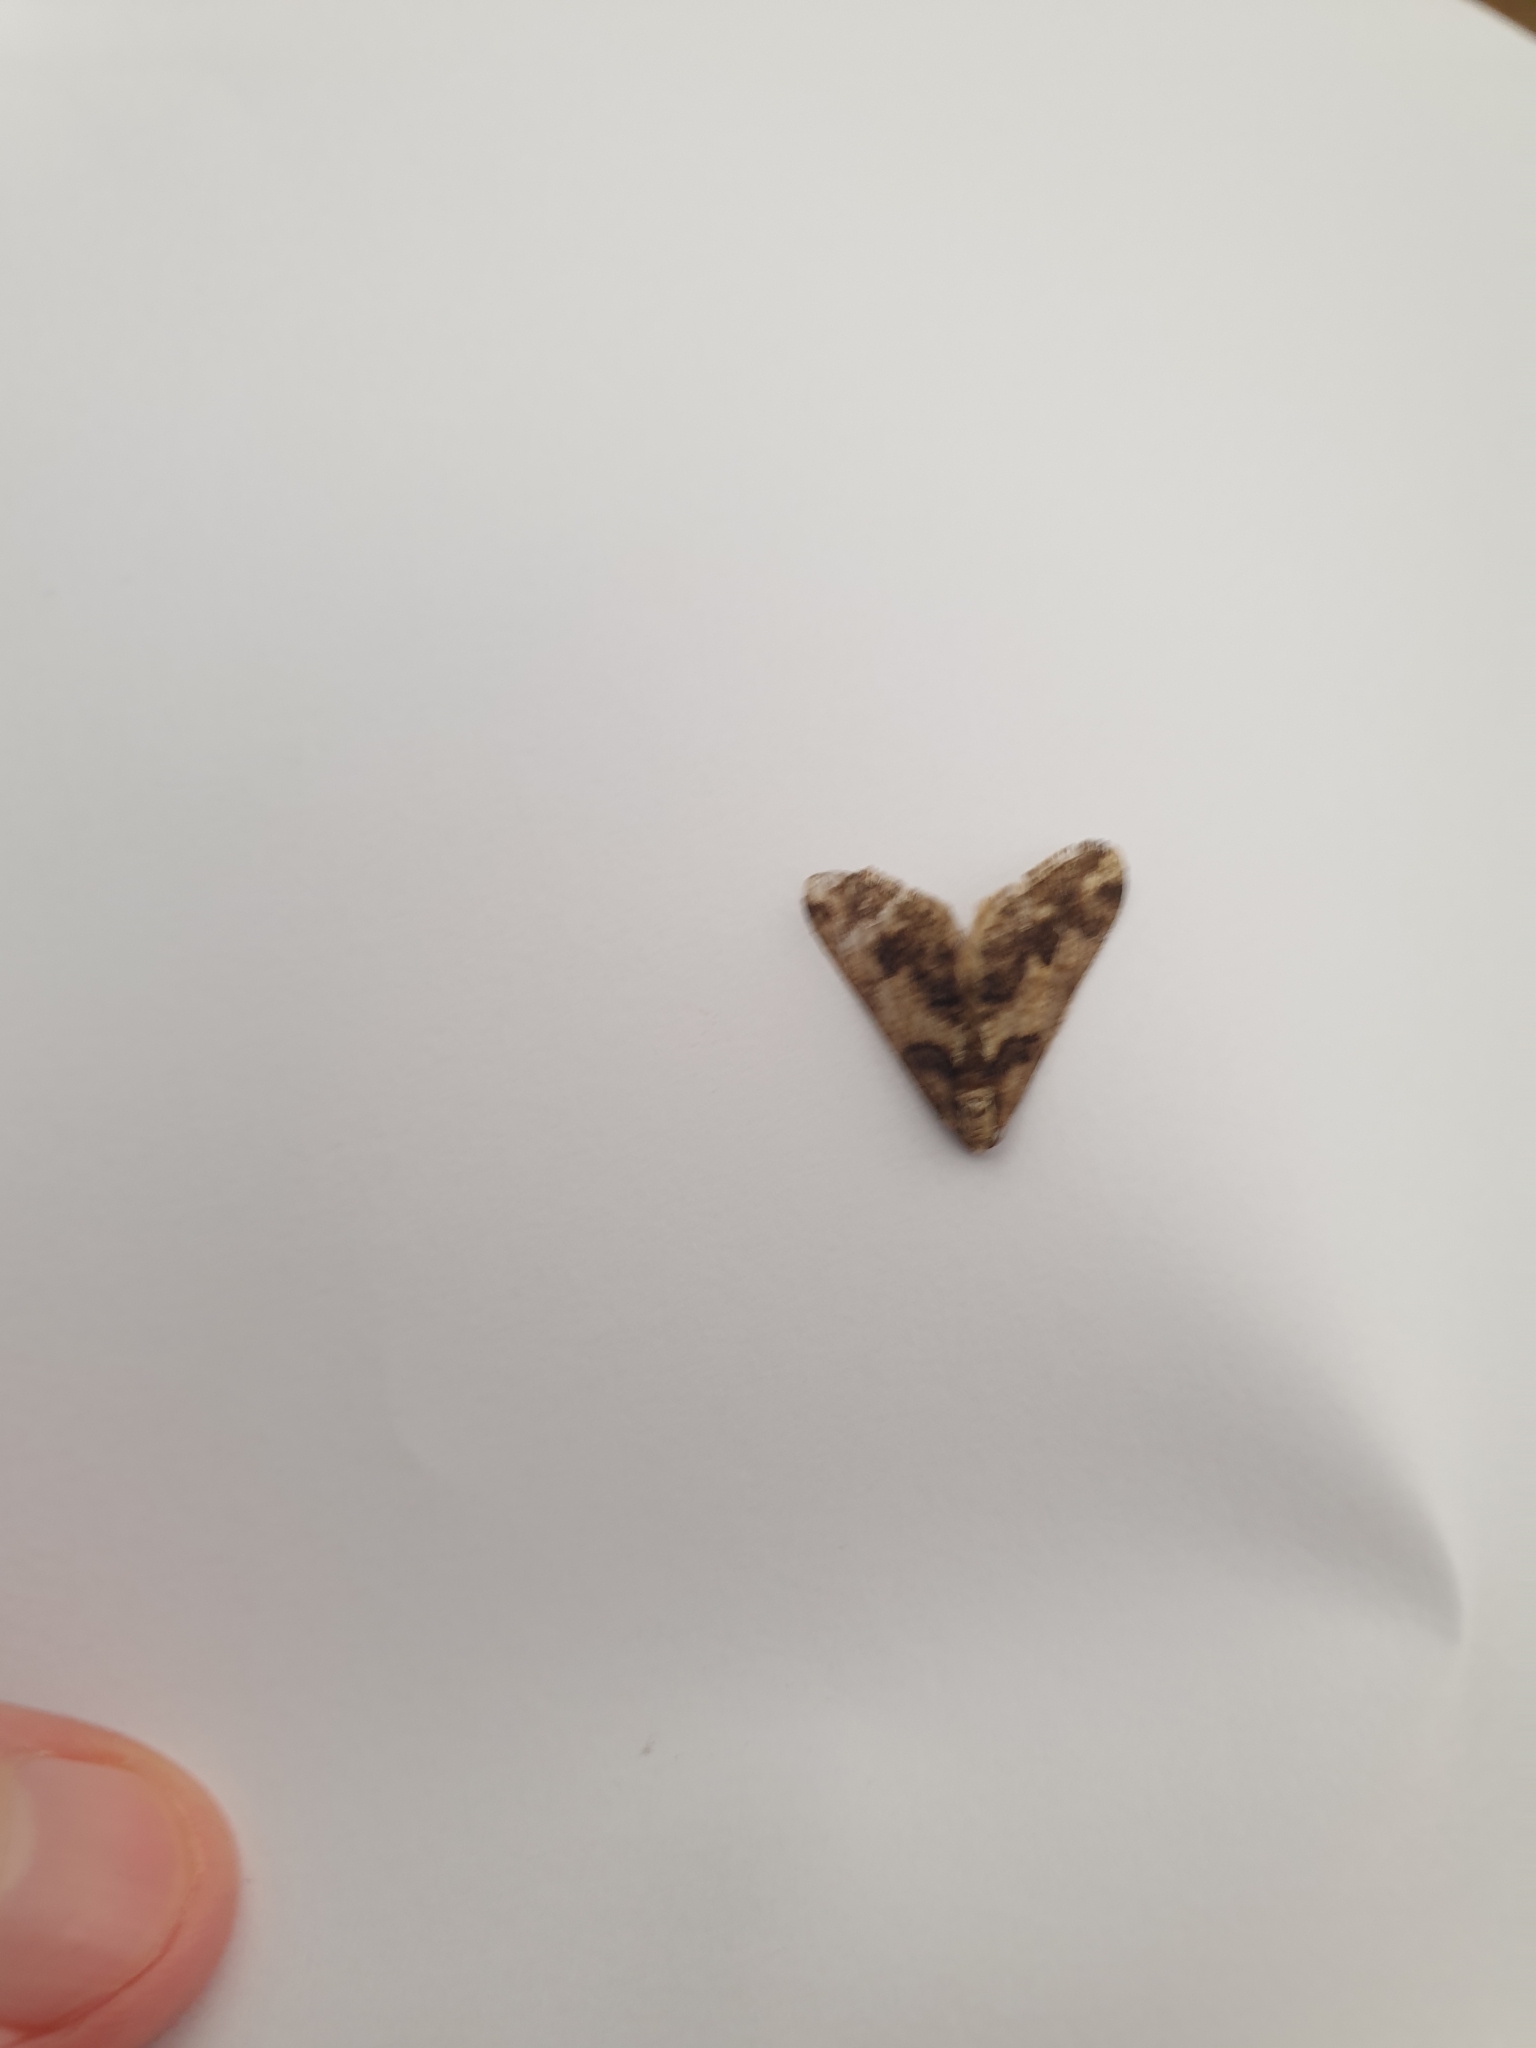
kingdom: Animalia
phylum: Arthropoda
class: Insecta
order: Lepidoptera
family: Geometridae
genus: Agriopis
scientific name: Agriopis leucophaearia
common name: Spring usher
